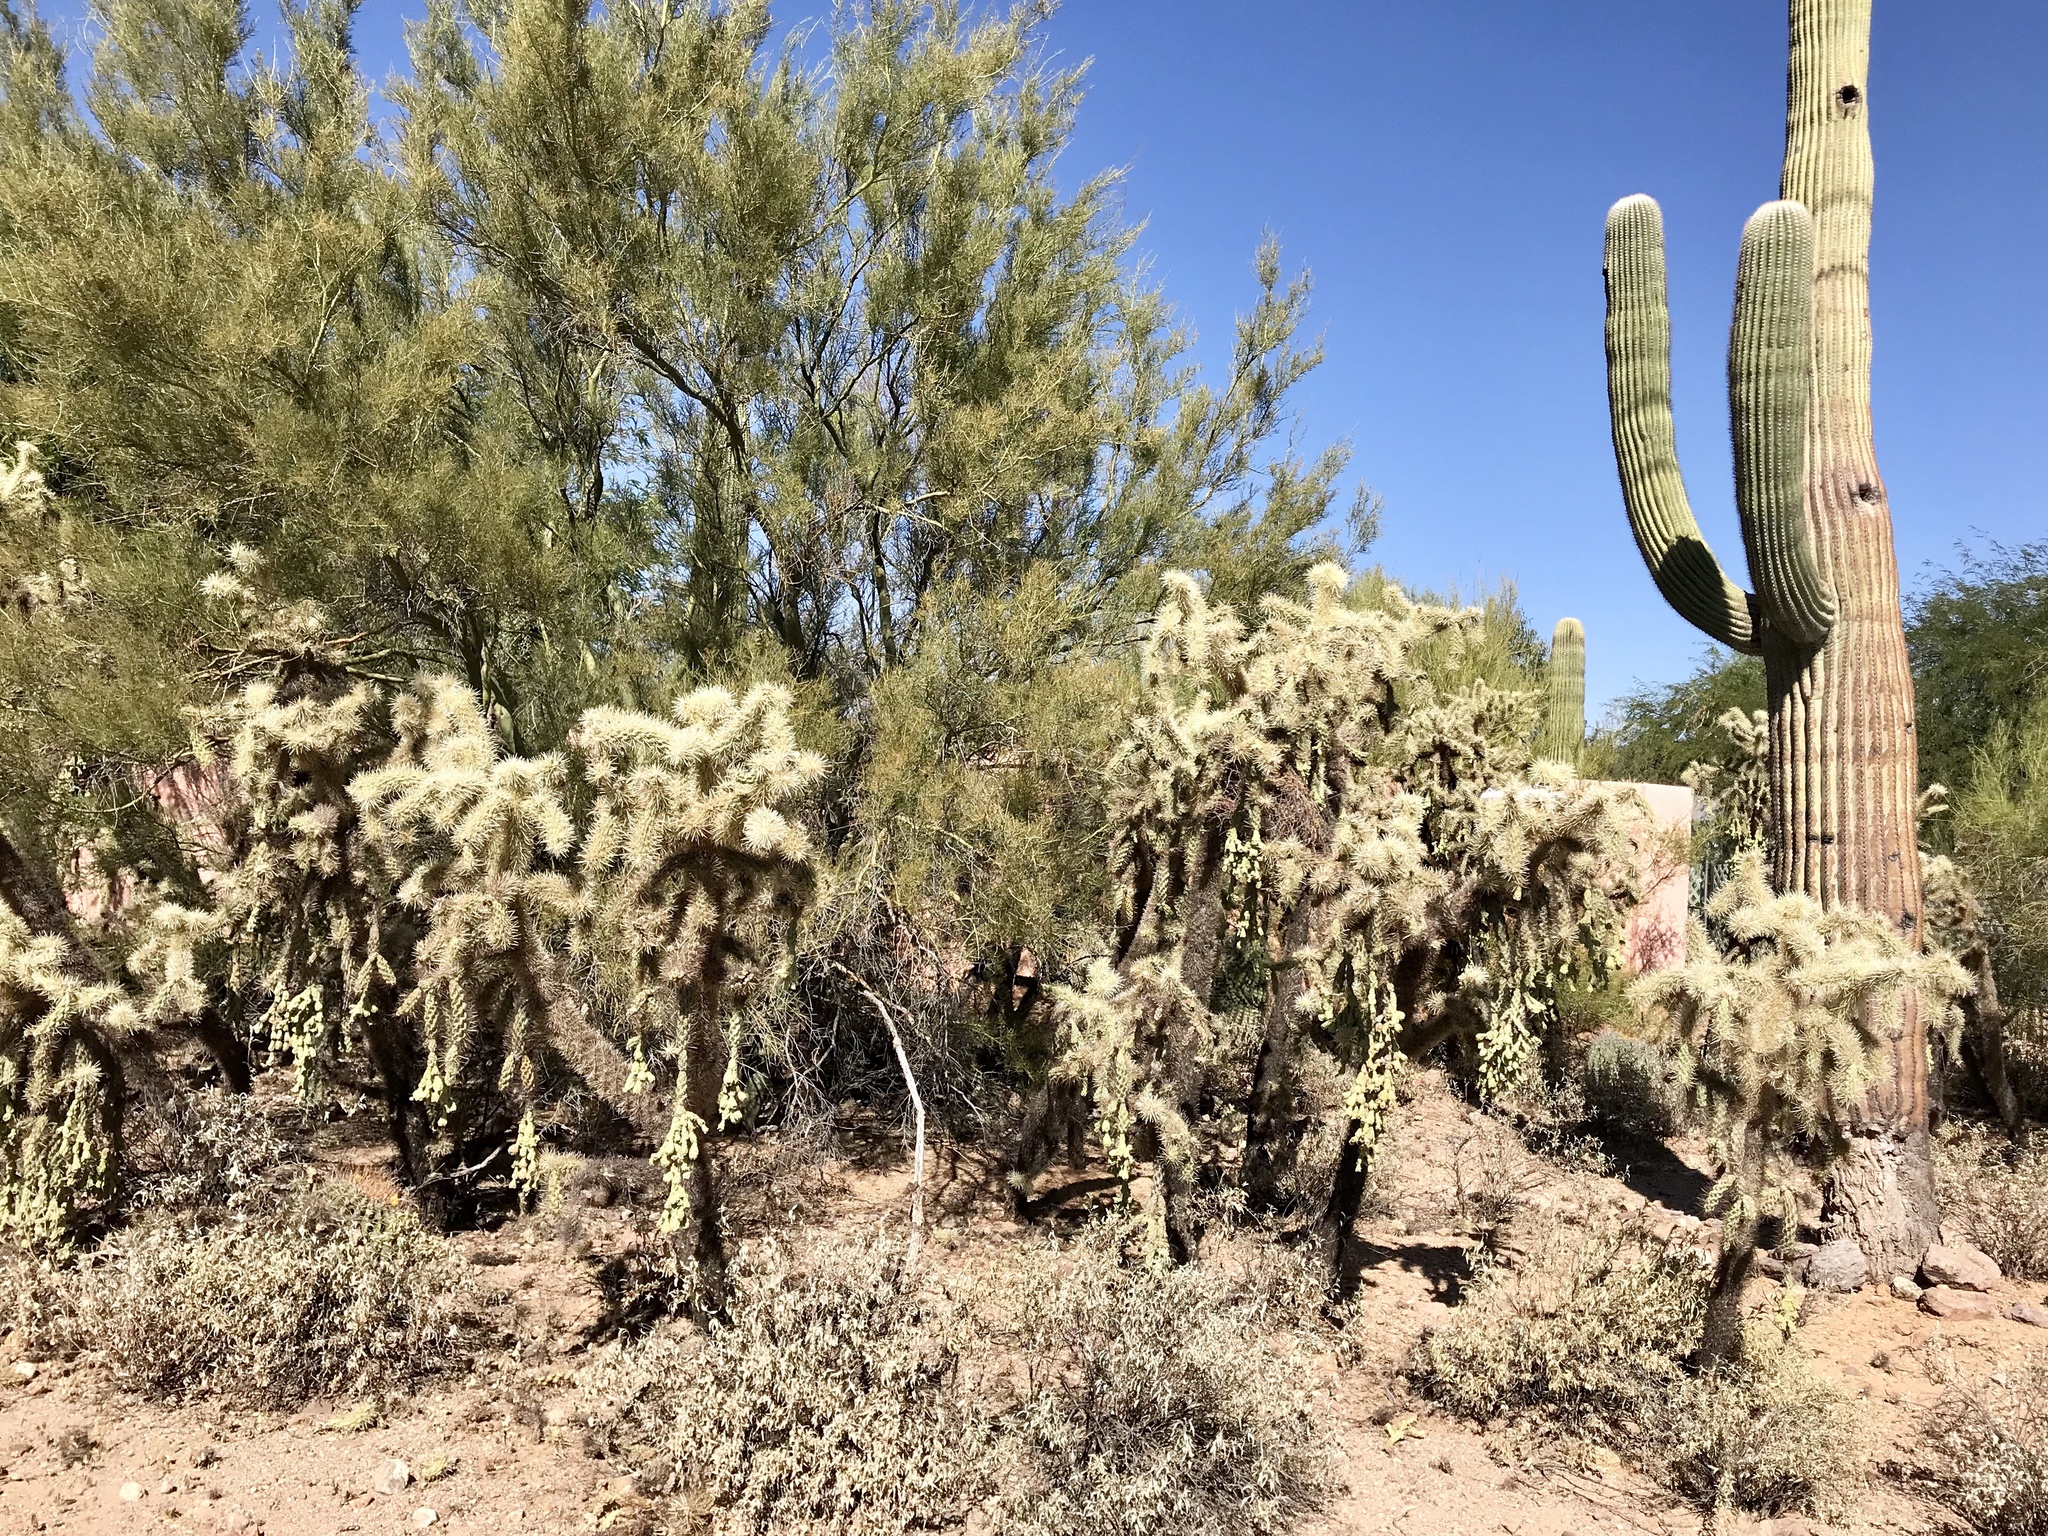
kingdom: Plantae
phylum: Tracheophyta
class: Magnoliopsida
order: Caryophyllales
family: Cactaceae
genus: Cylindropuntia
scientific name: Cylindropuntia fulgida
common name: Jumping cholla
